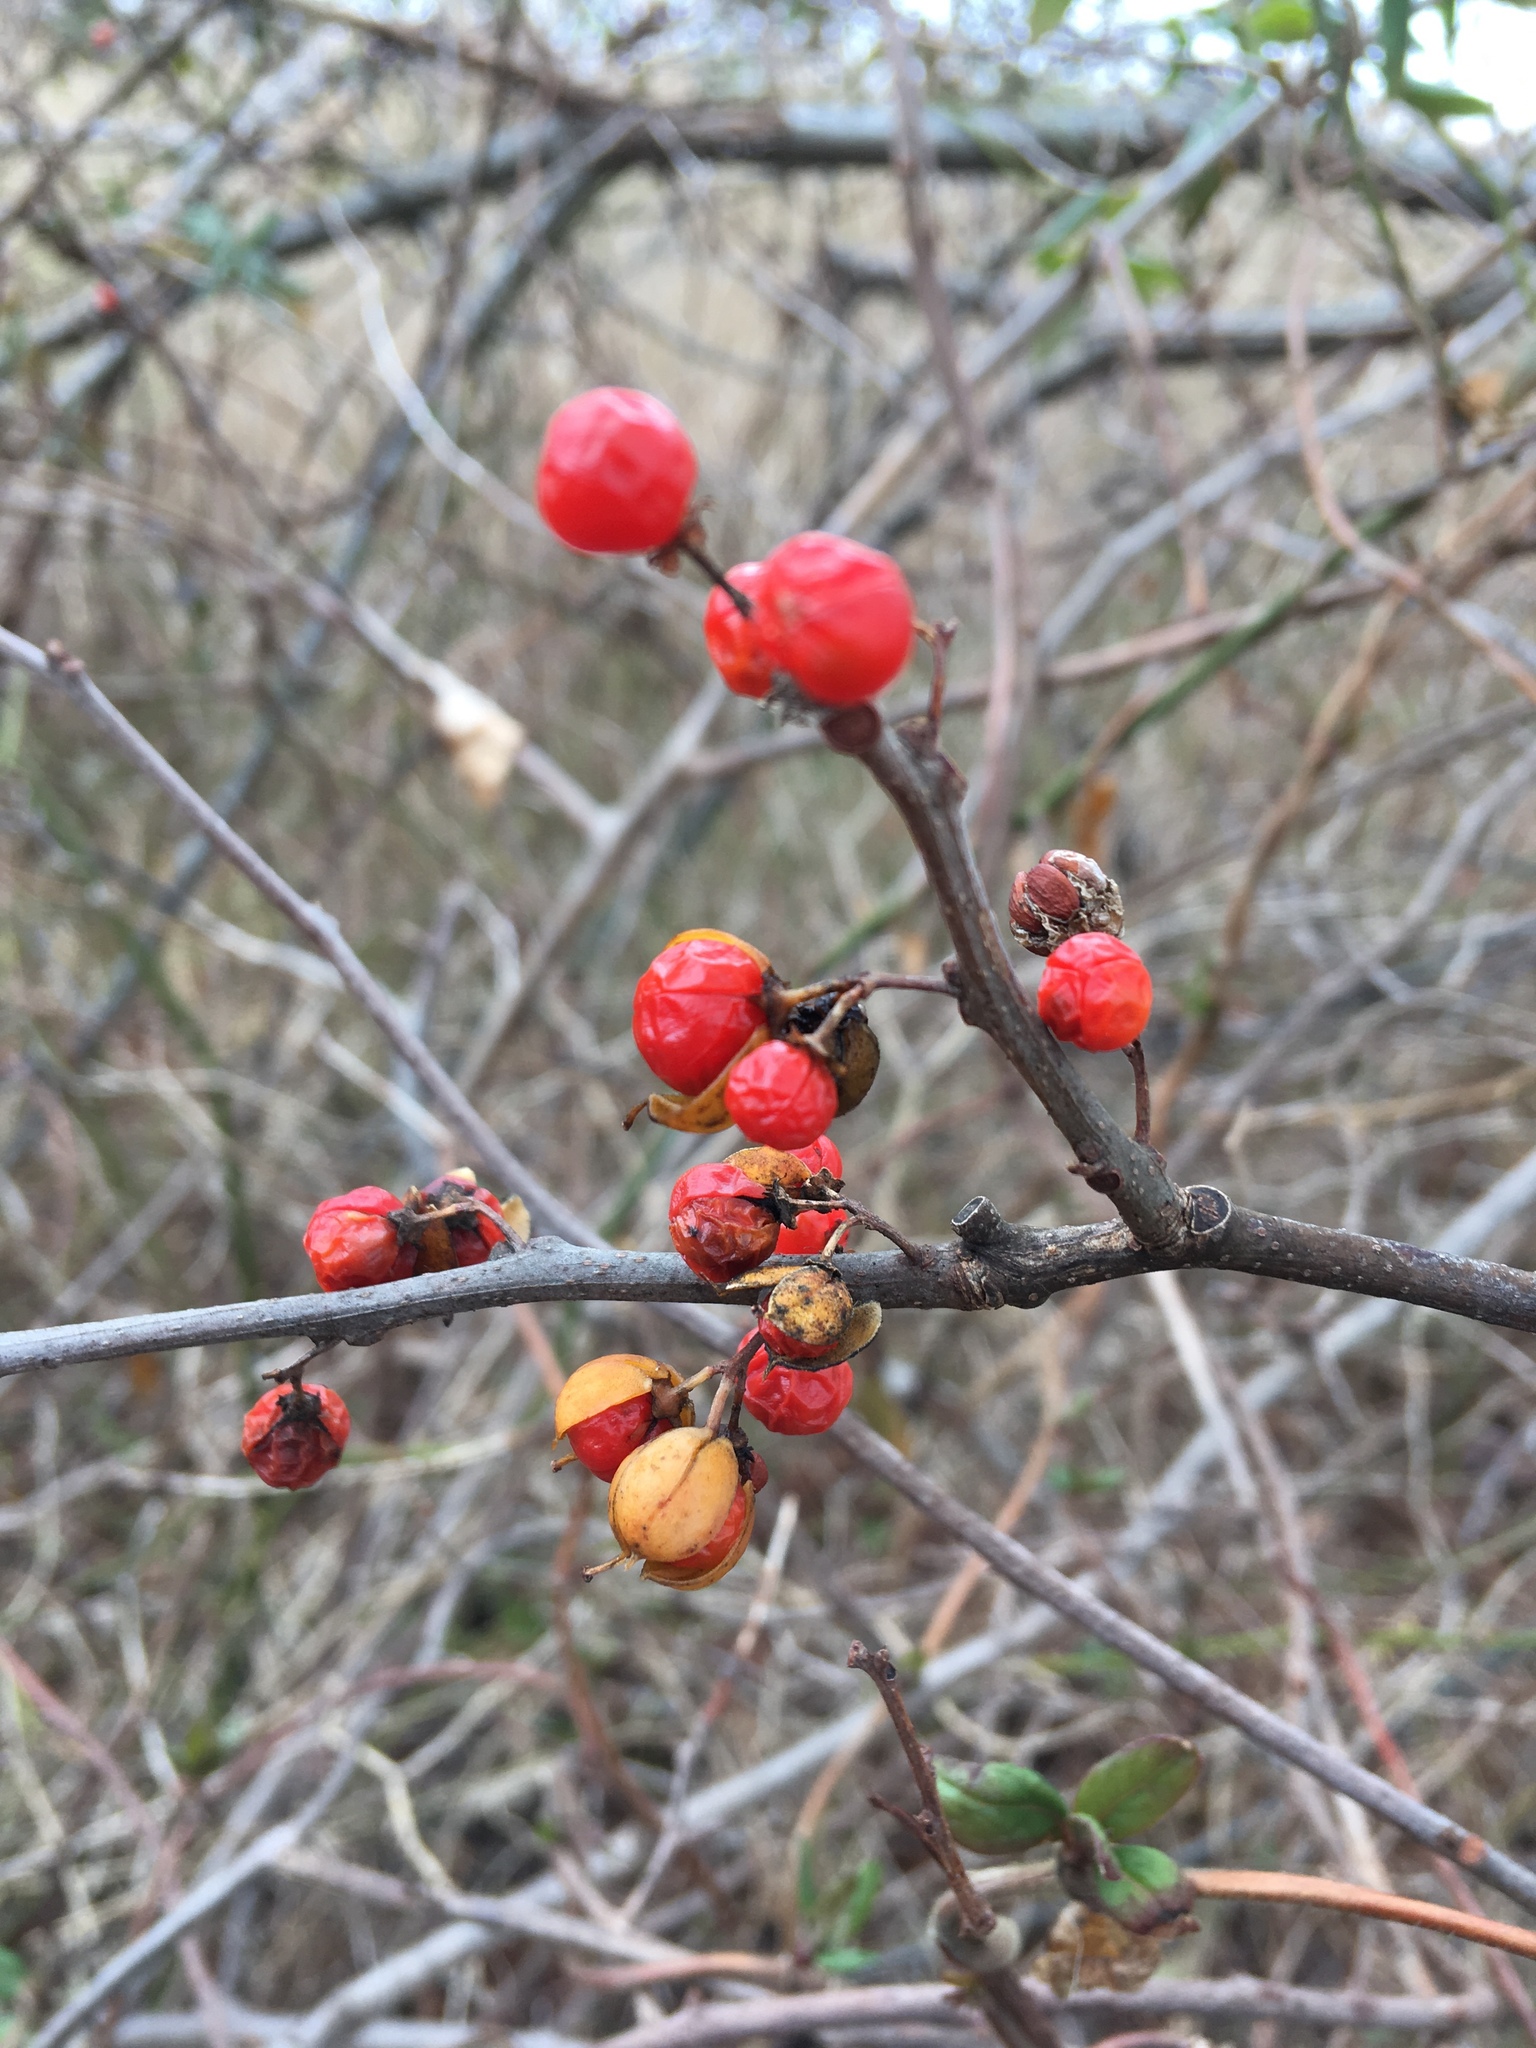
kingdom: Plantae
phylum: Tracheophyta
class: Magnoliopsida
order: Celastrales
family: Celastraceae
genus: Celastrus
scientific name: Celastrus orbiculatus
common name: Oriental bittersweet
